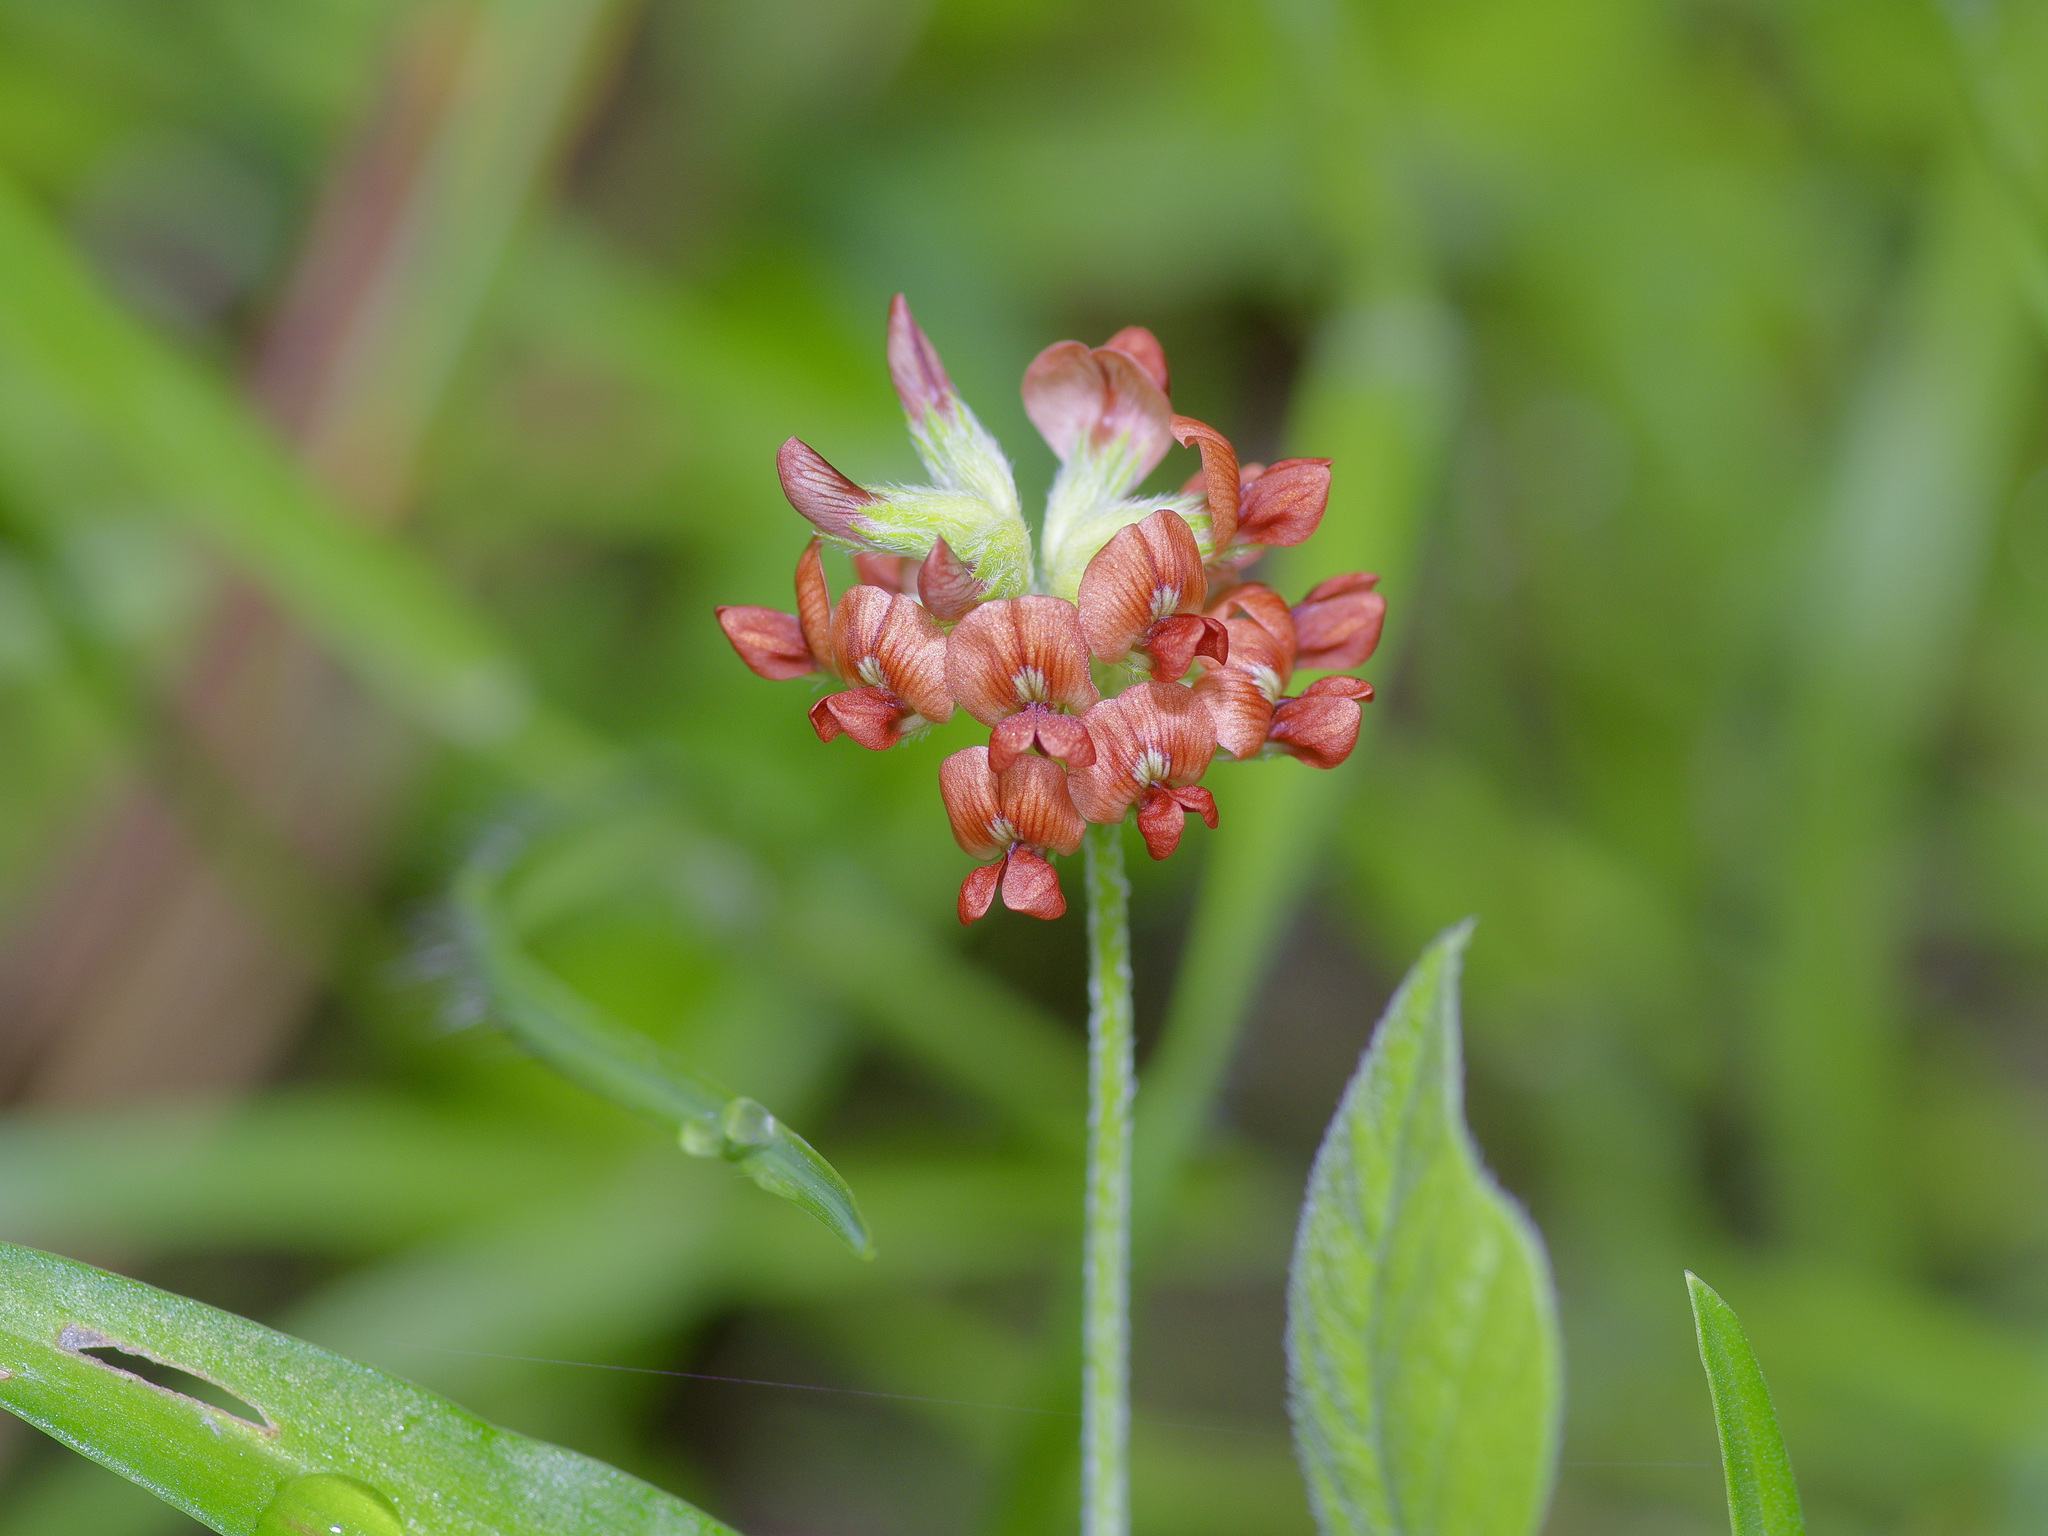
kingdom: Plantae
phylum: Tracheophyta
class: Magnoliopsida
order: Fabales
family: Fabaceae
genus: Pediomelum
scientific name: Pediomelum rhombifolium
